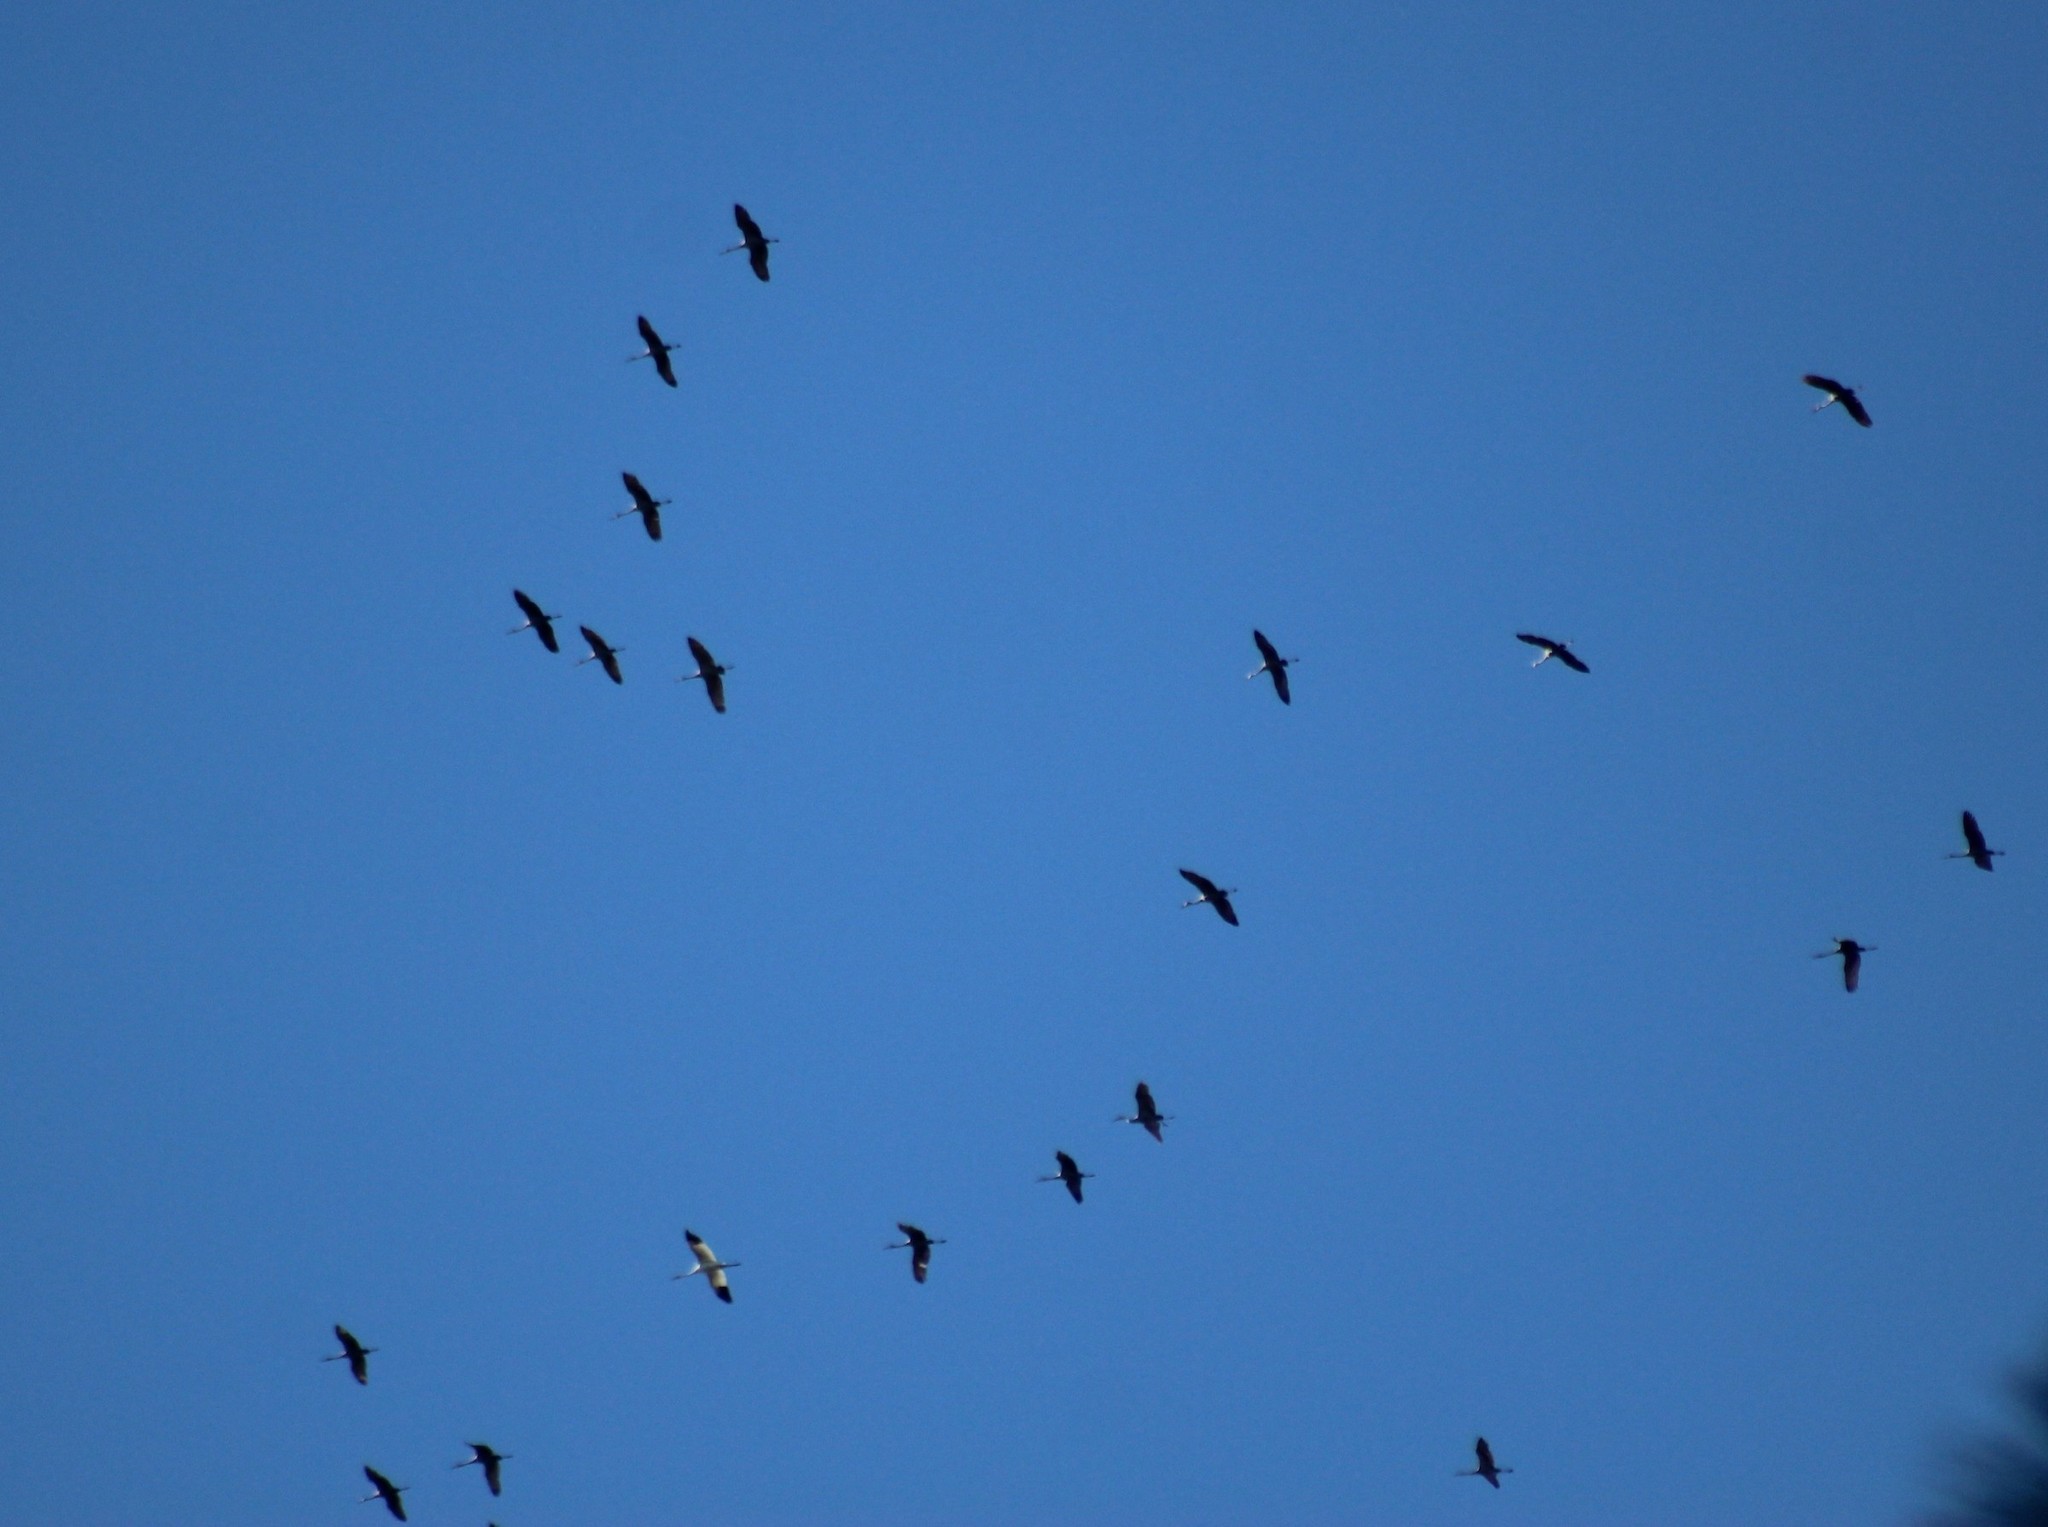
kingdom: Animalia
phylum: Chordata
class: Aves
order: Gruiformes
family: Gruidae
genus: Grus
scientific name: Grus americana
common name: Whooping crane
